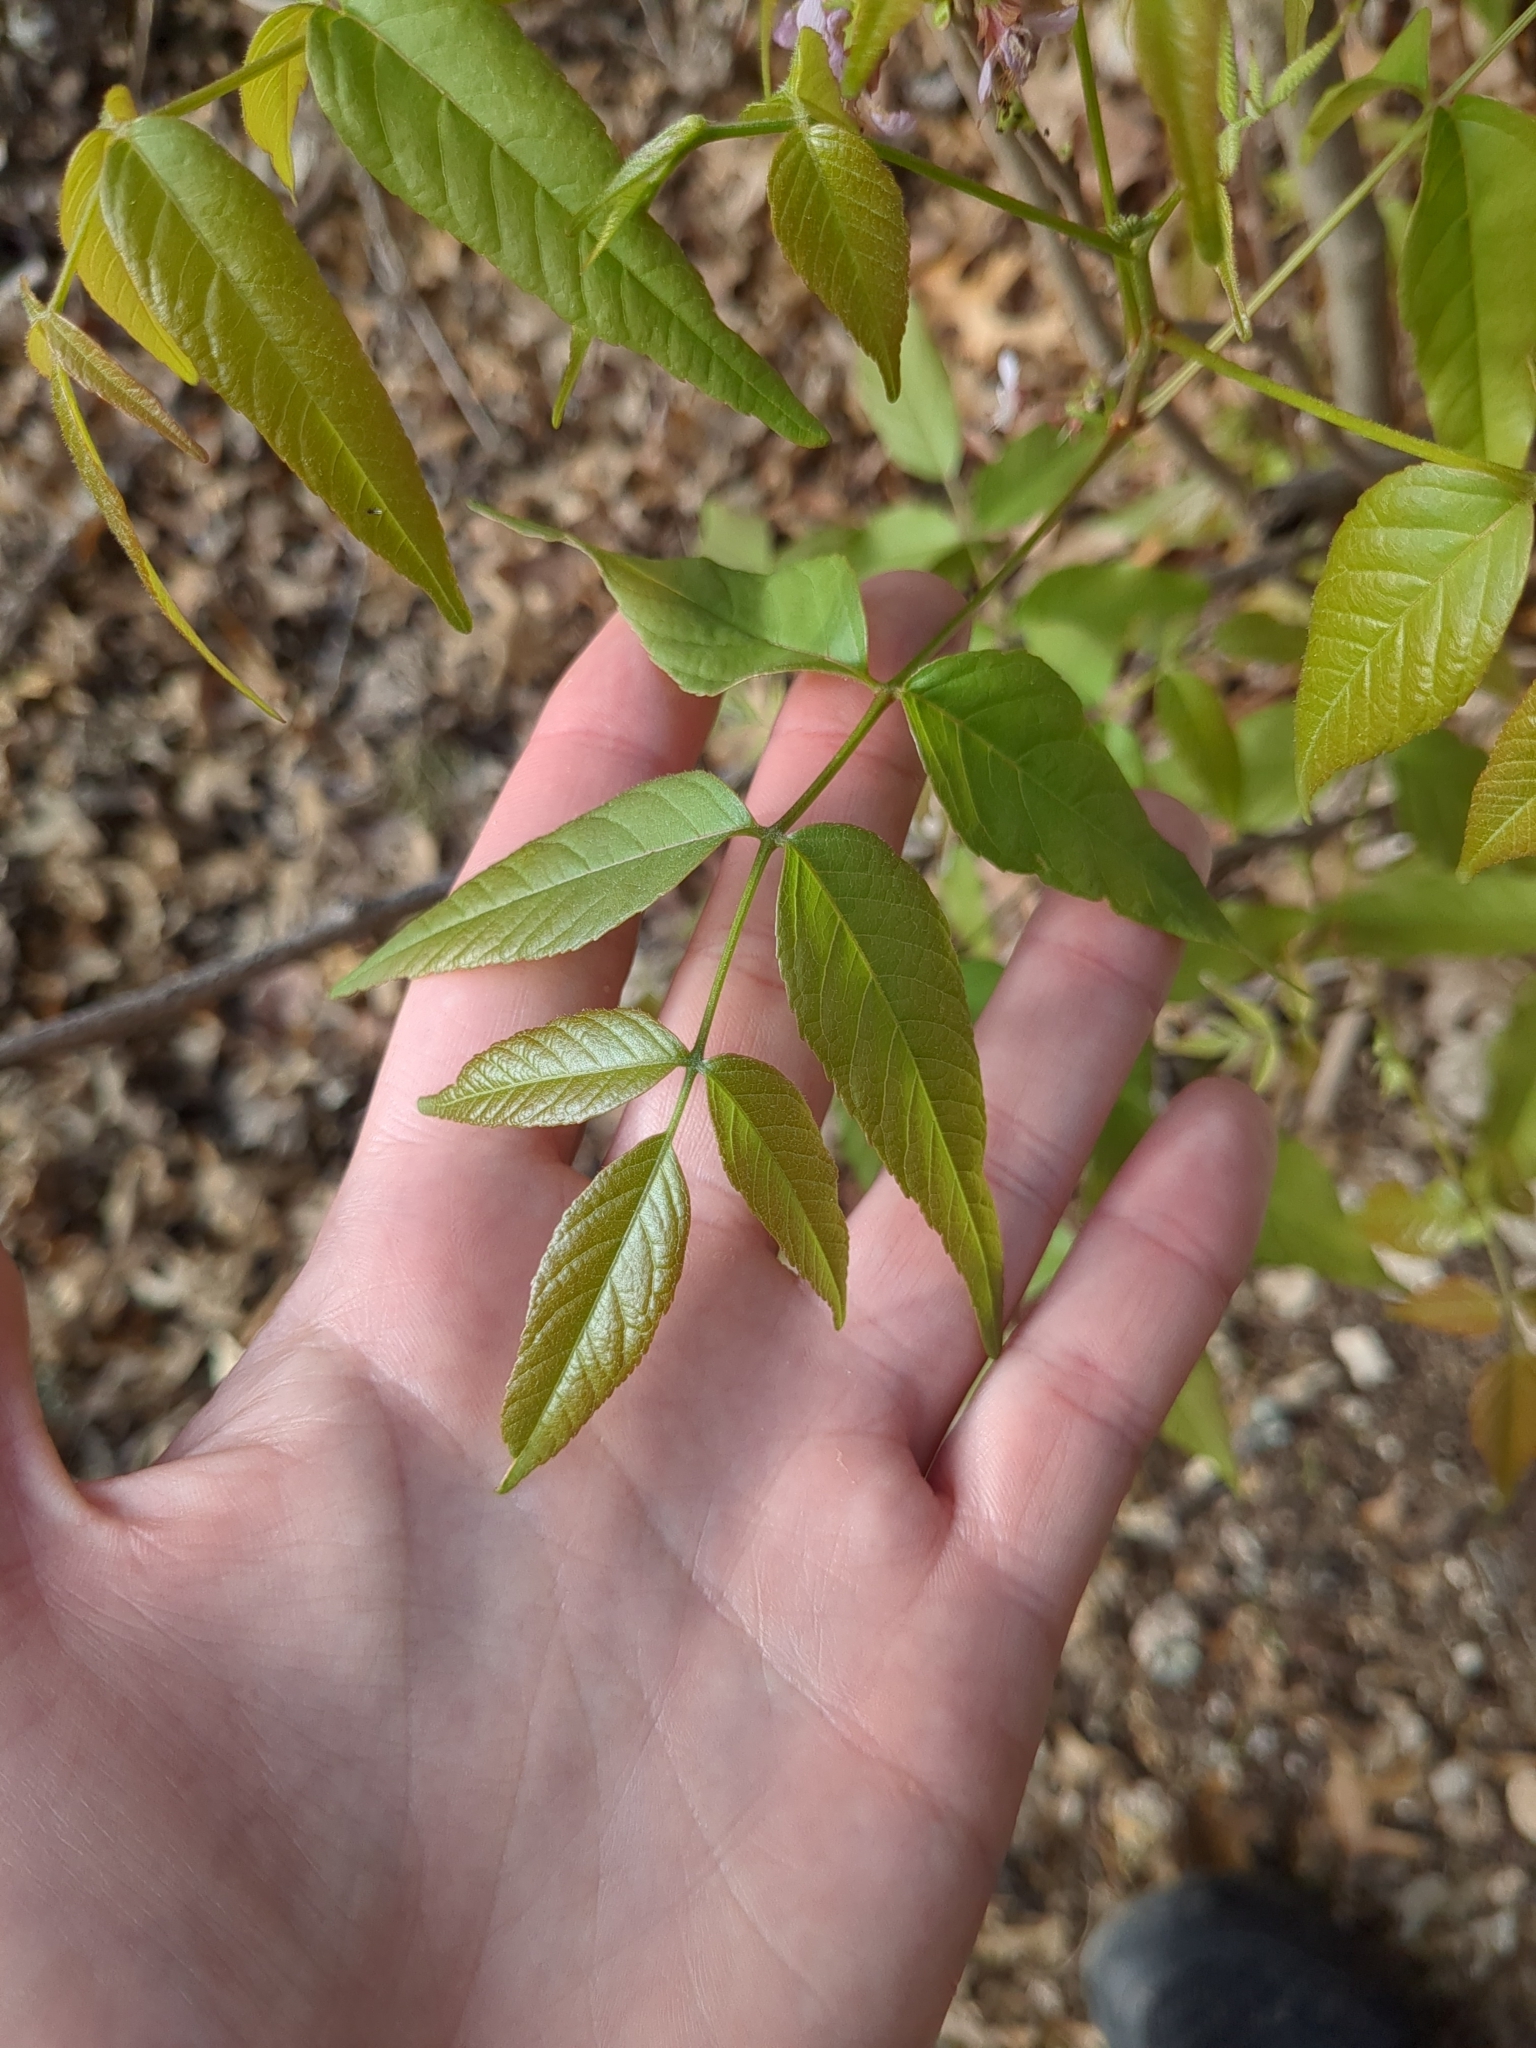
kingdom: Plantae
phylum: Tracheophyta
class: Magnoliopsida
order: Sapindales
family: Sapindaceae
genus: Ungnadia
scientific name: Ungnadia speciosa
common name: Texas-buckeye
